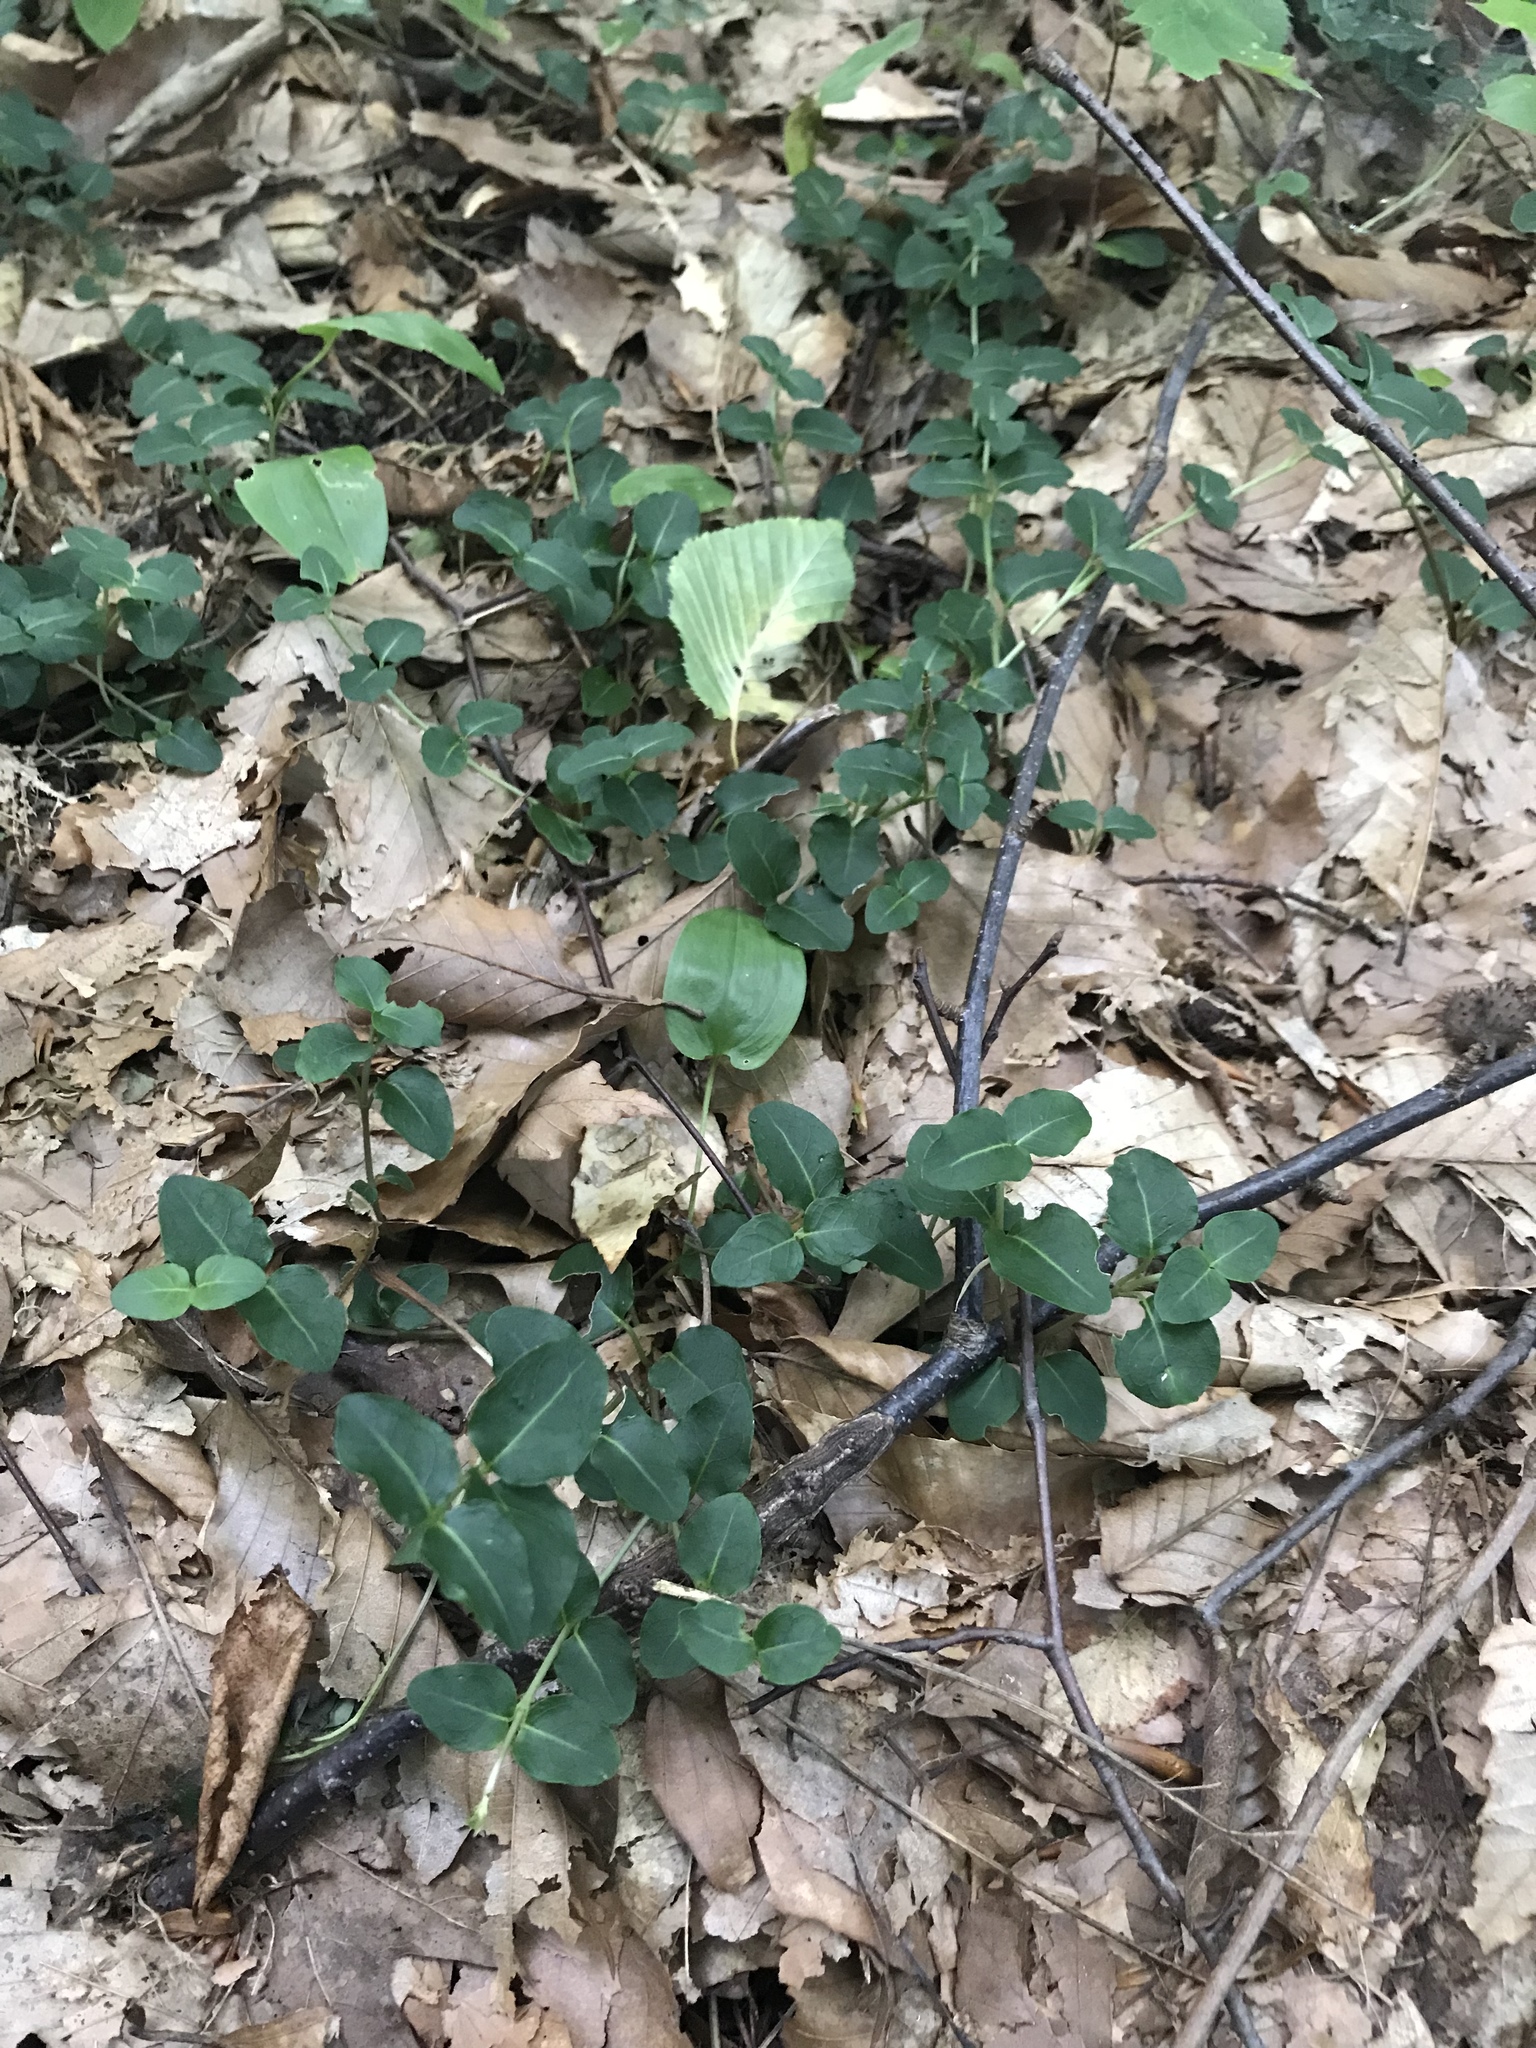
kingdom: Plantae
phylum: Tracheophyta
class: Magnoliopsida
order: Gentianales
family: Rubiaceae
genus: Mitchella
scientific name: Mitchella repens
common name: Partridge-berry
